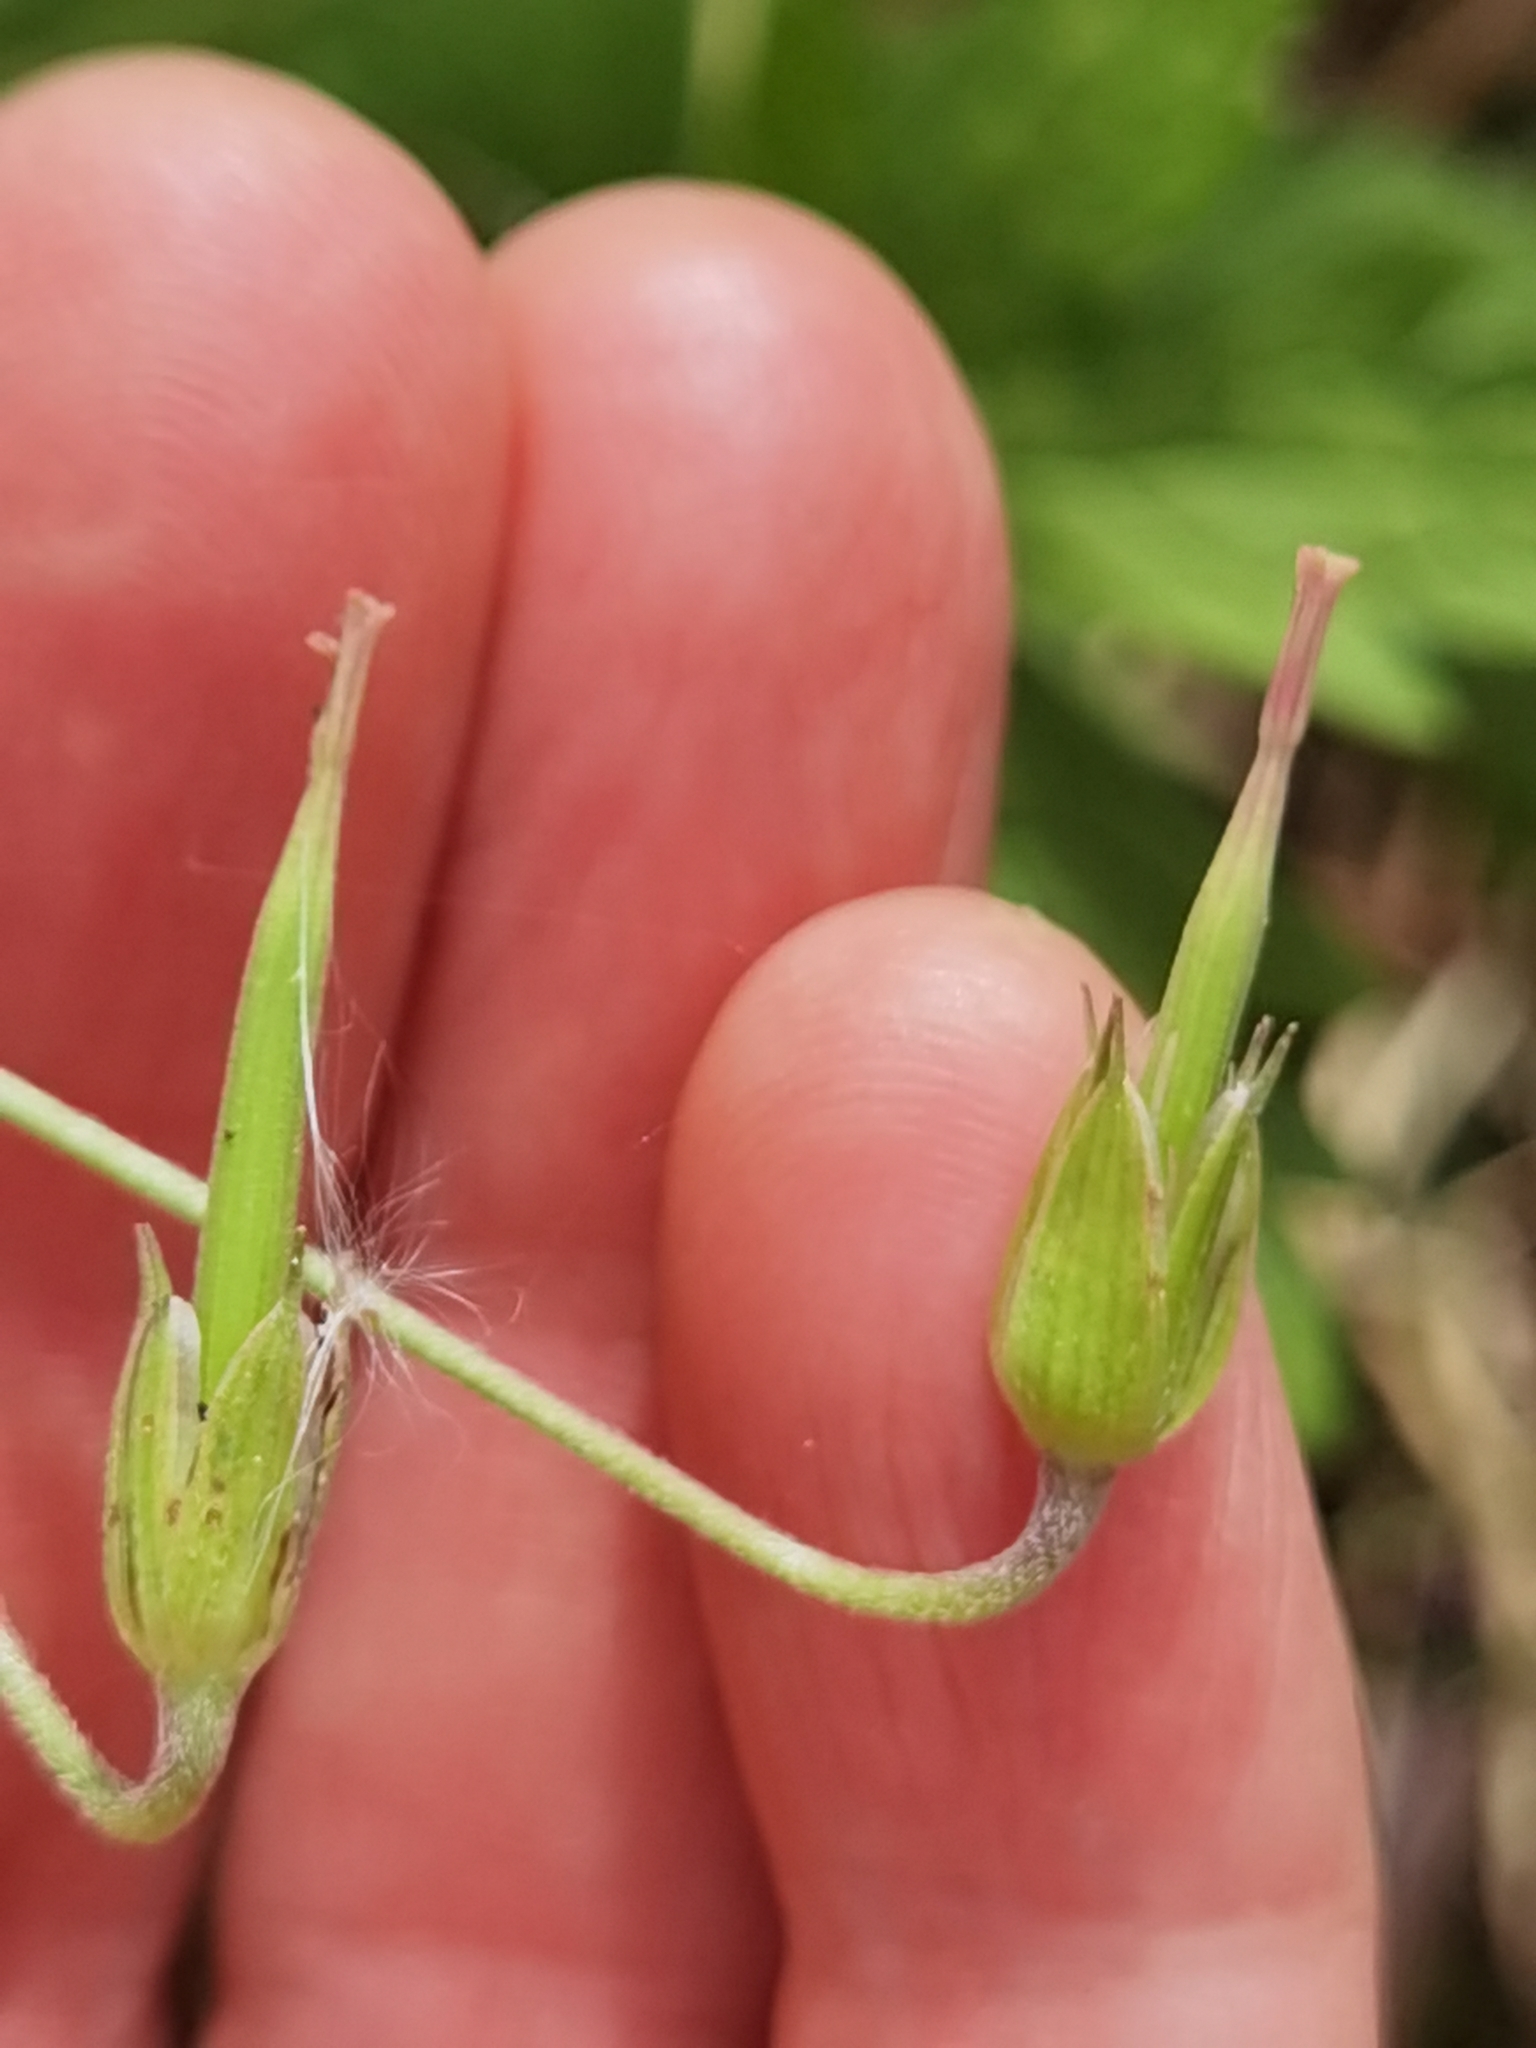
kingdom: Plantae
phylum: Tracheophyta
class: Magnoliopsida
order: Geraniales
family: Geraniaceae
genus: Geranium
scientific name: Geranium palustre
